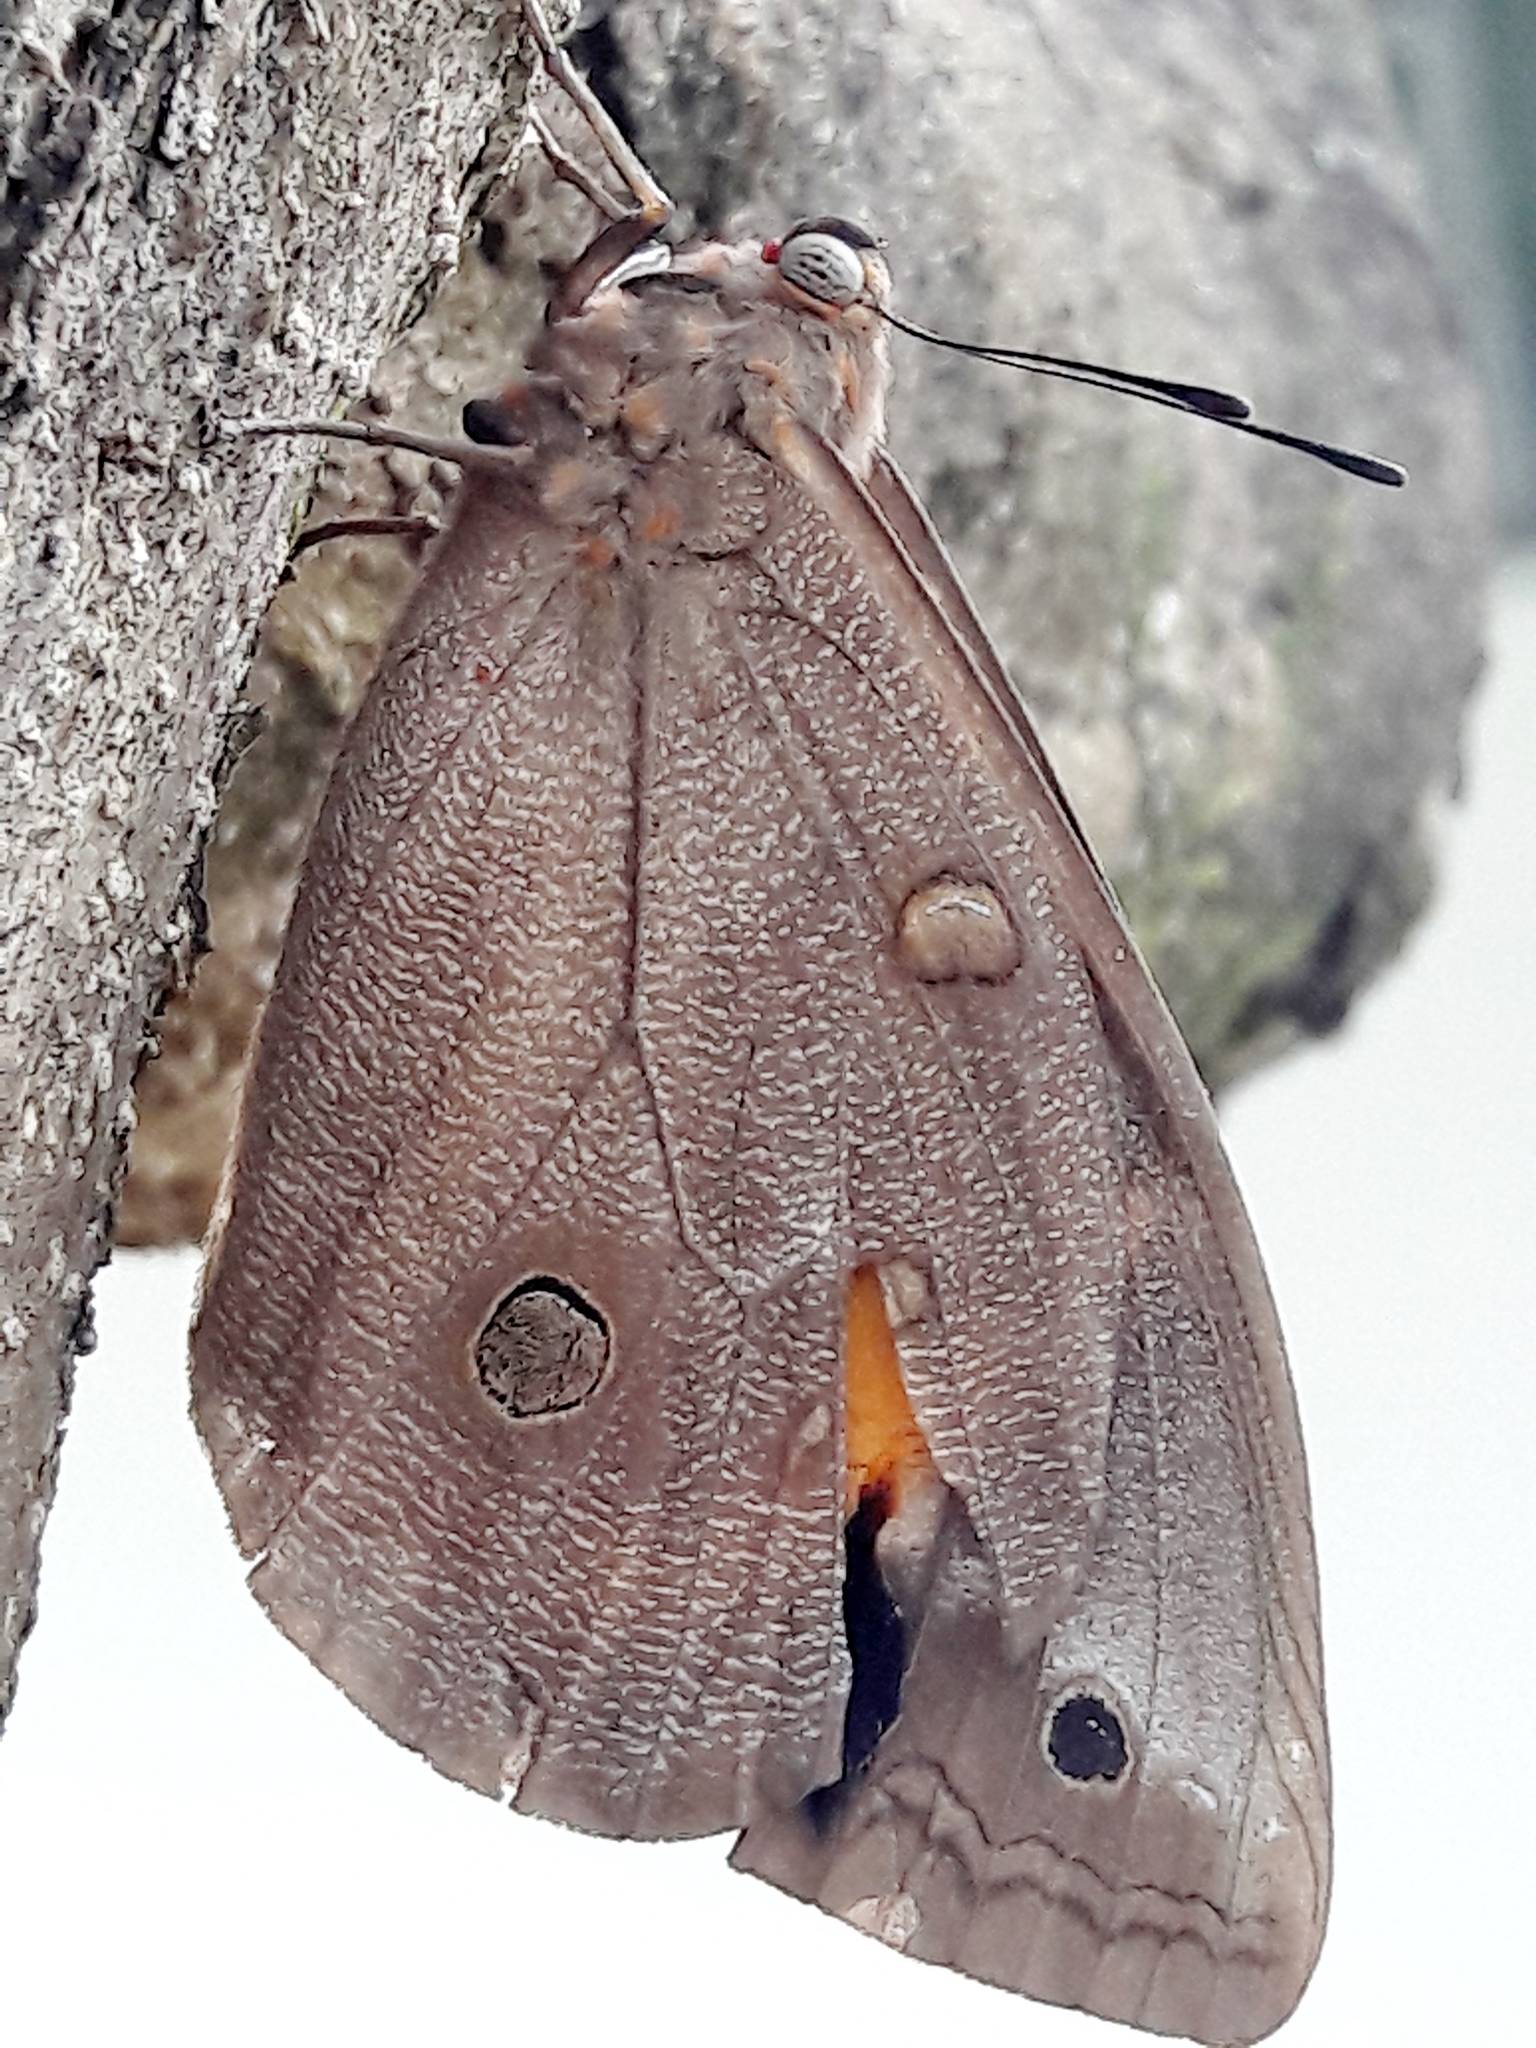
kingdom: Animalia
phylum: Arthropoda
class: Insecta
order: Lepidoptera
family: Nymphalidae
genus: Brassolis
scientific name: Brassolis sophorae
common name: Coconut caterpillar
